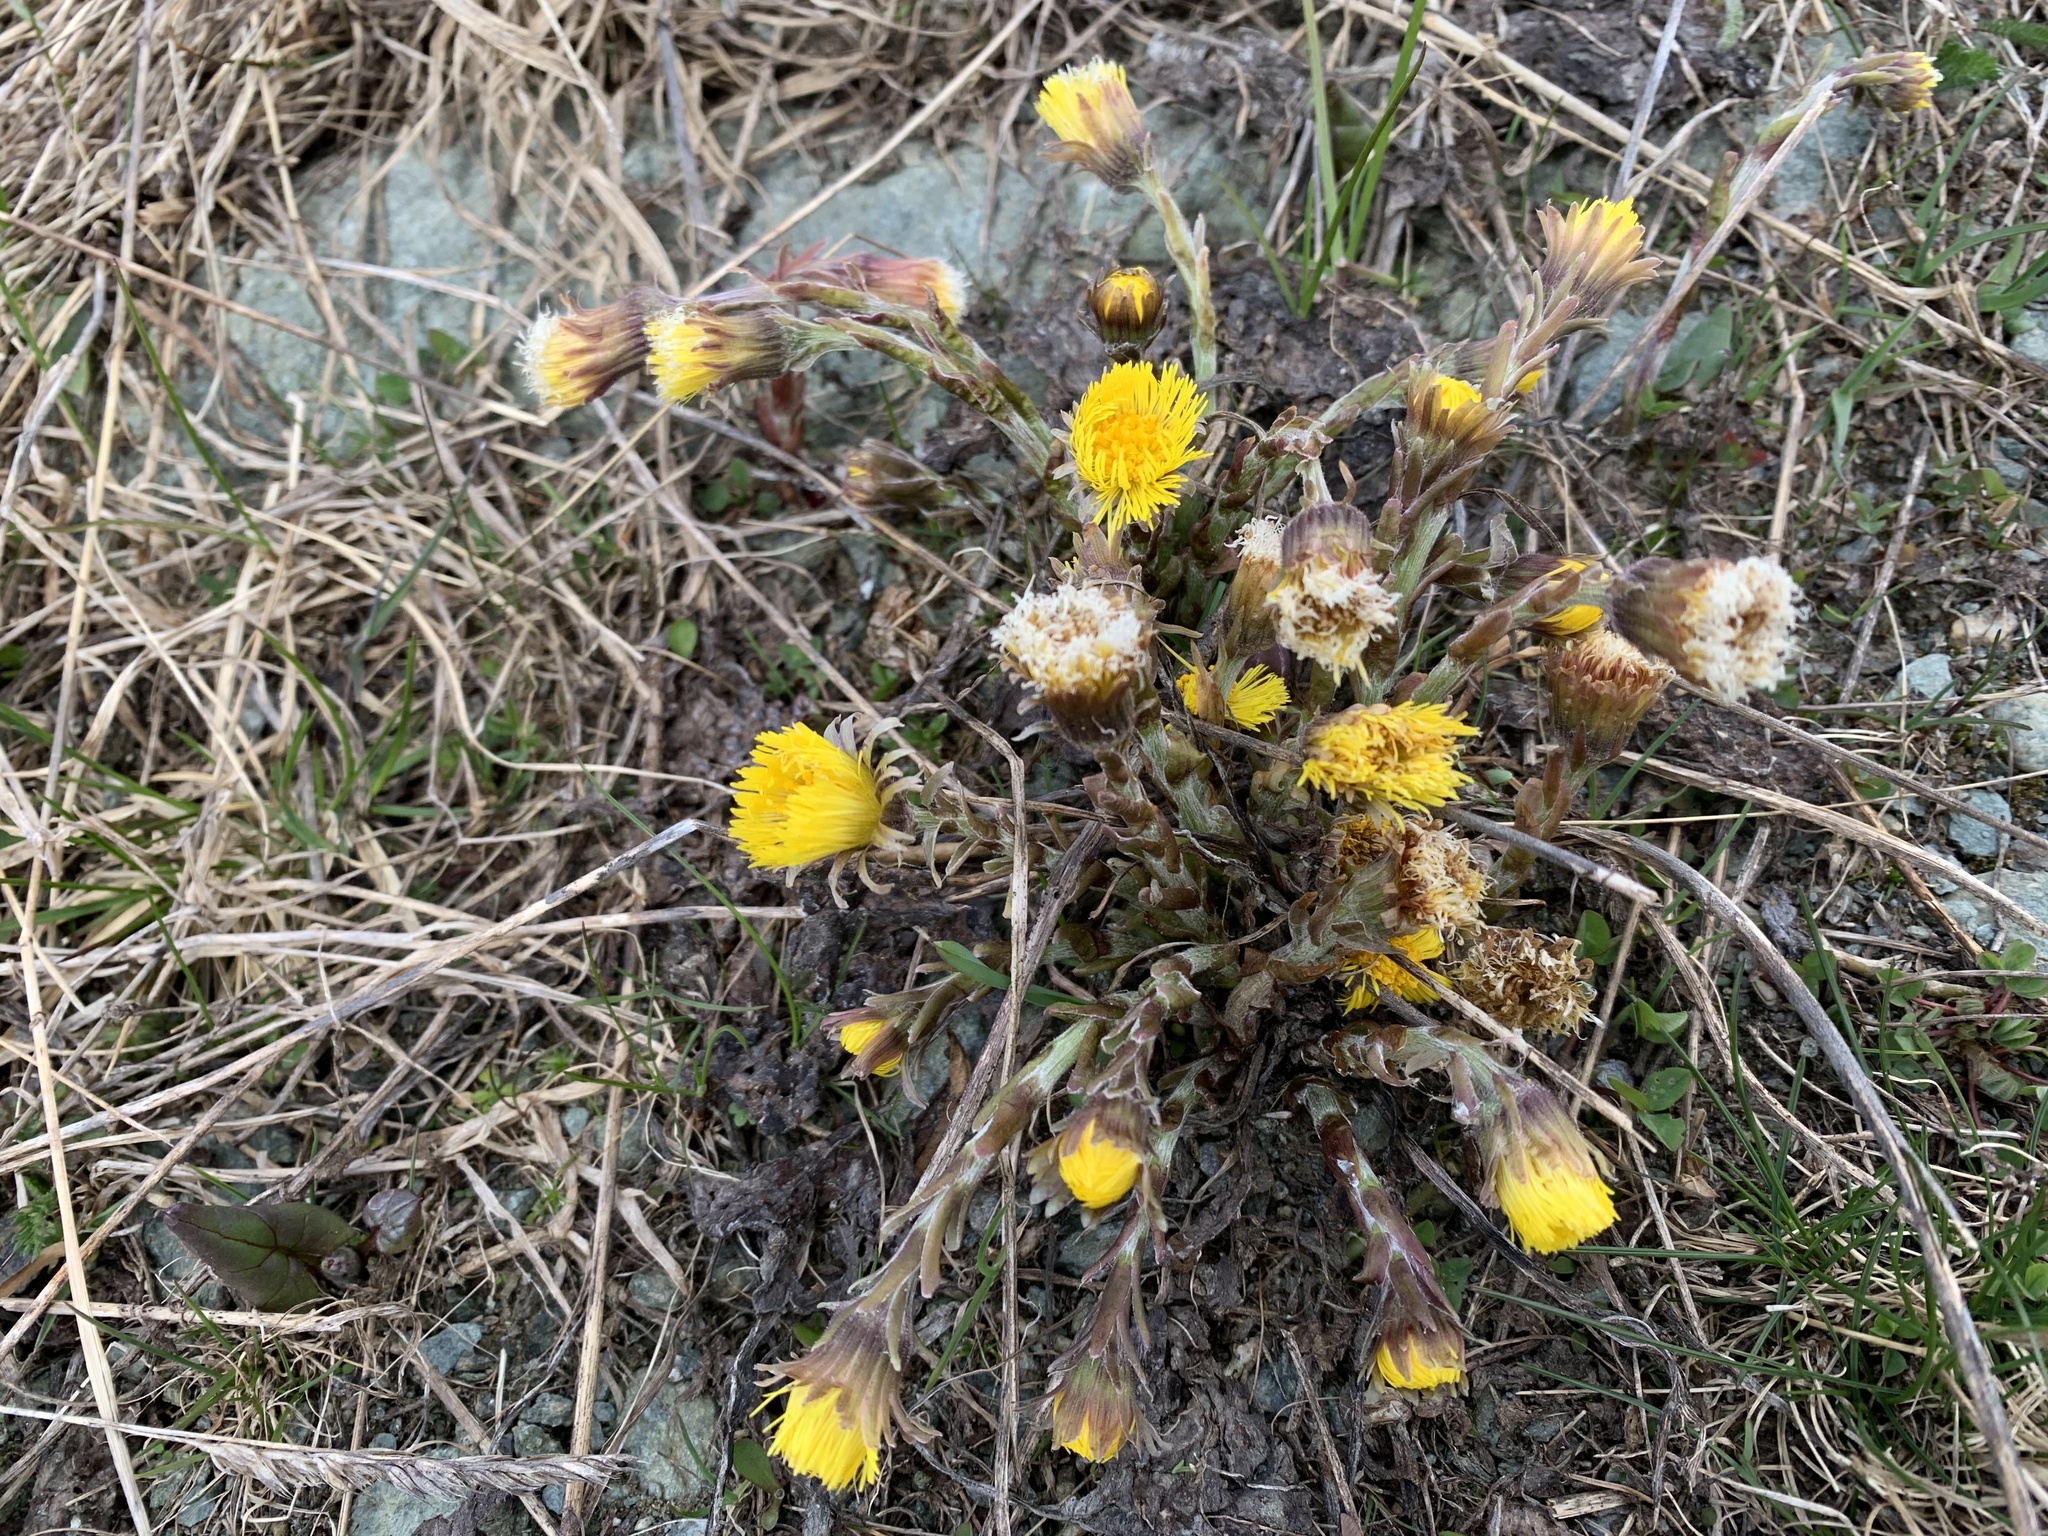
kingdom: Plantae
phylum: Tracheophyta
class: Magnoliopsida
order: Asterales
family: Asteraceae
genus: Tussilago
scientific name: Tussilago farfara
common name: Coltsfoot
